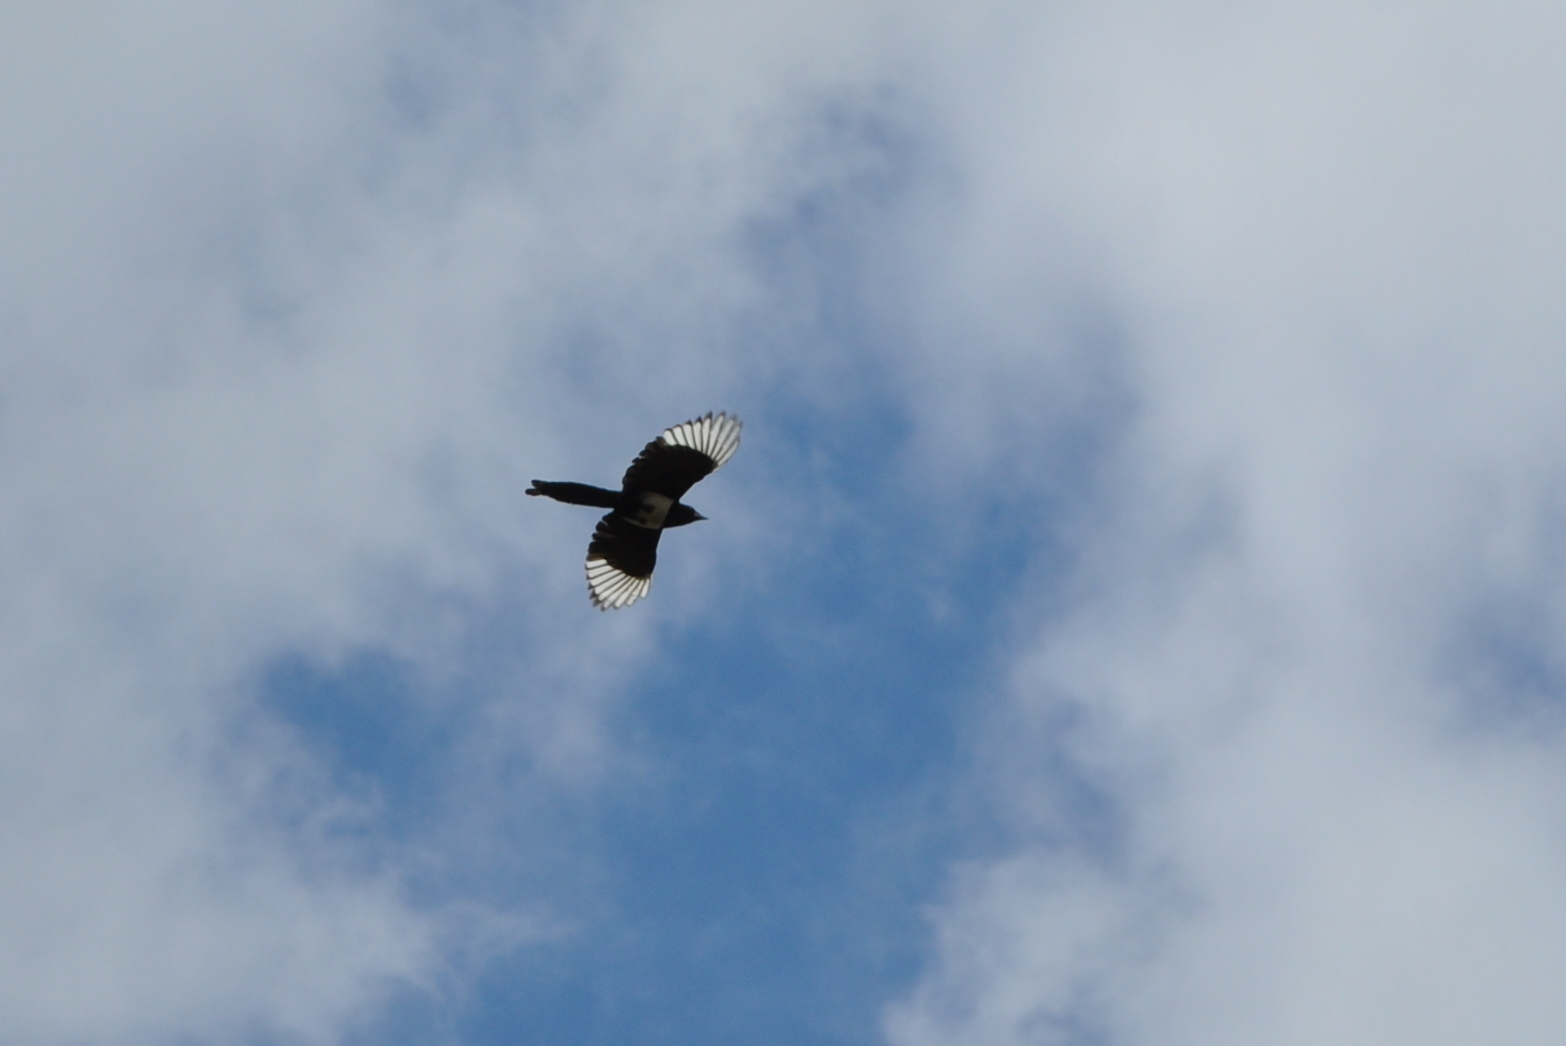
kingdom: Animalia
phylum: Chordata
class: Aves
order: Passeriformes
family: Corvidae
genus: Pica
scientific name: Pica pica
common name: Eurasian magpie
